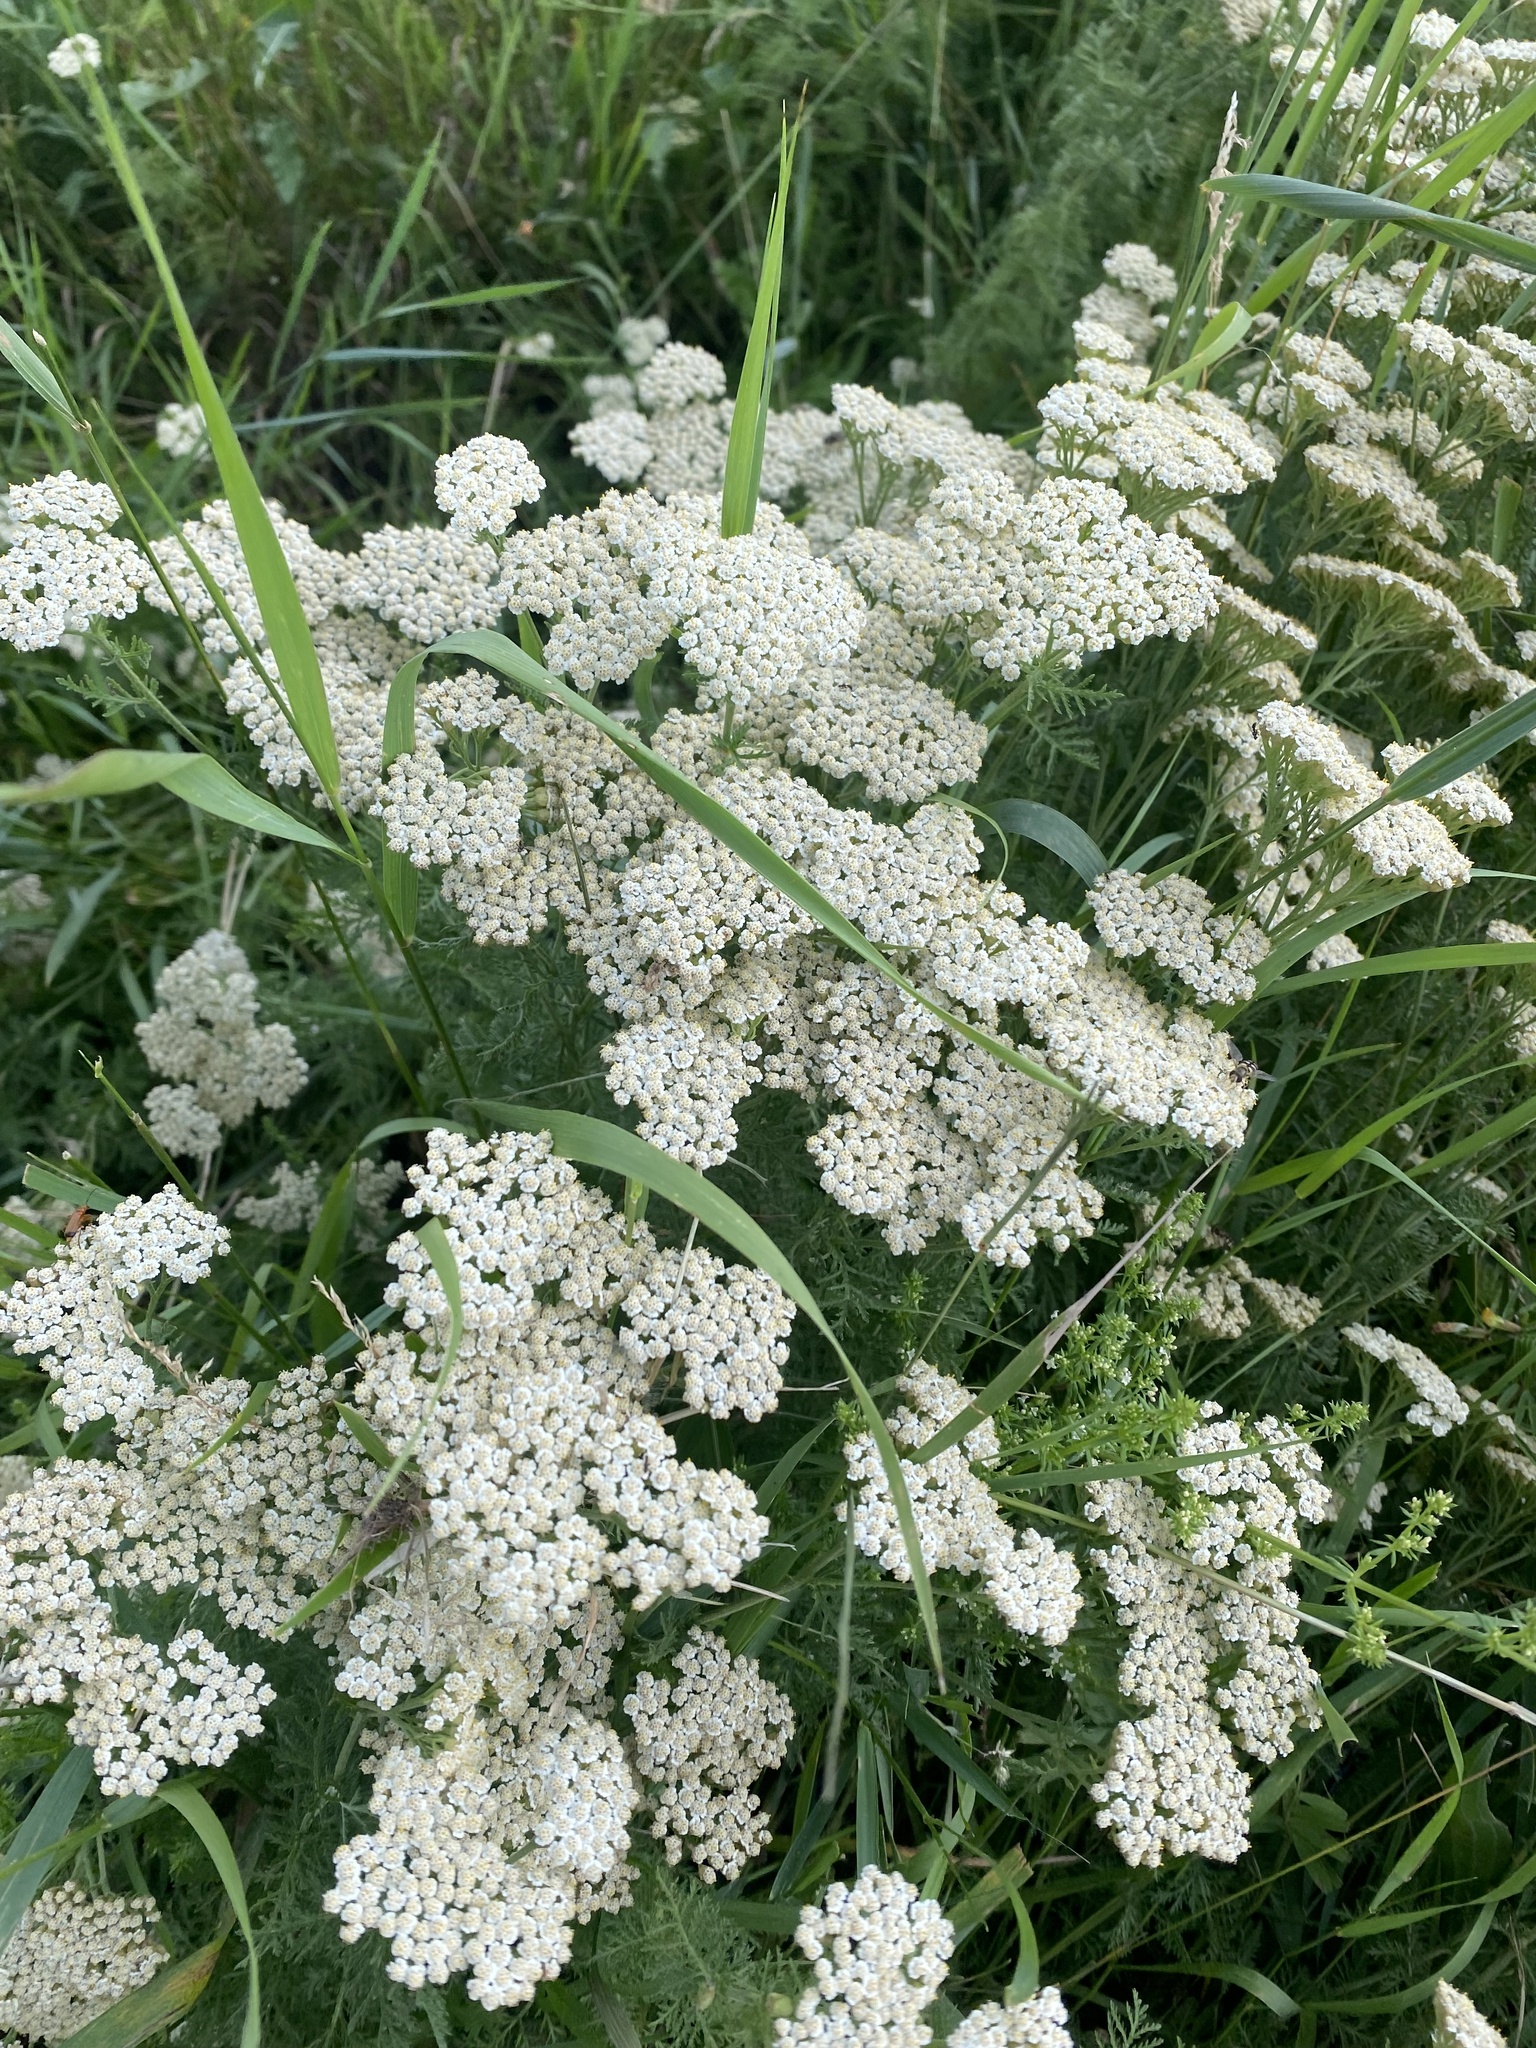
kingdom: Plantae
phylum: Tracheophyta
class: Magnoliopsida
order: Asterales
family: Asteraceae
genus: Achillea
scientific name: Achillea nobilis
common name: Noble yarrow
